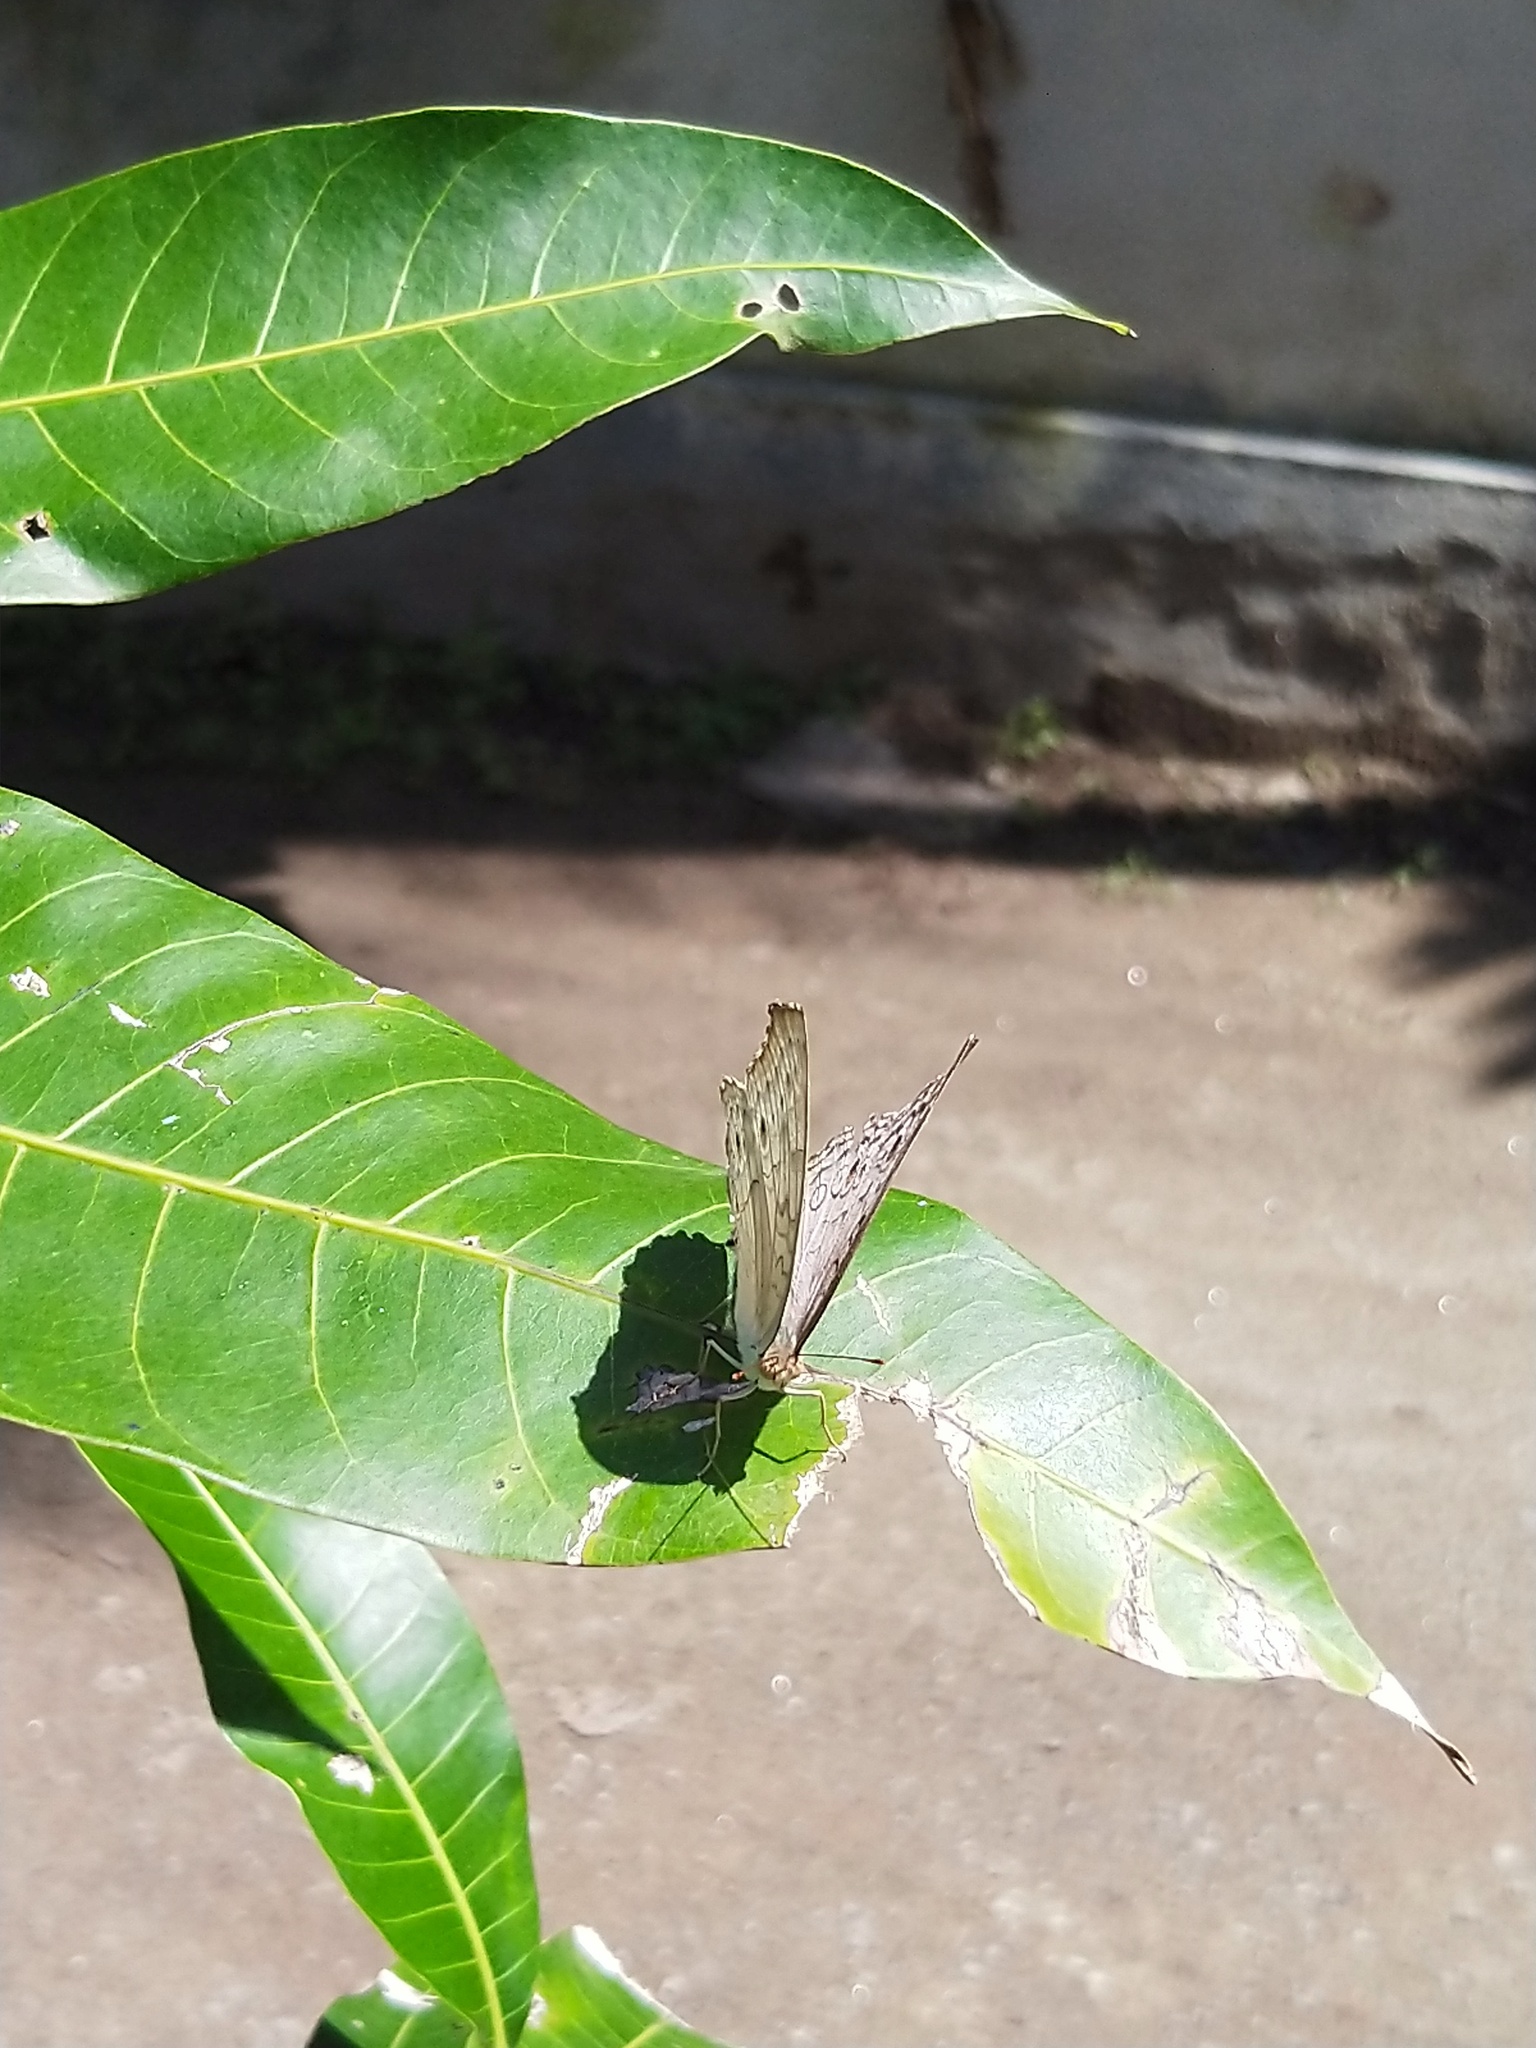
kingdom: Animalia
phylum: Arthropoda
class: Insecta
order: Lepidoptera
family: Nymphalidae
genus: Junonia
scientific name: Junonia atlites
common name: Grey pansy
